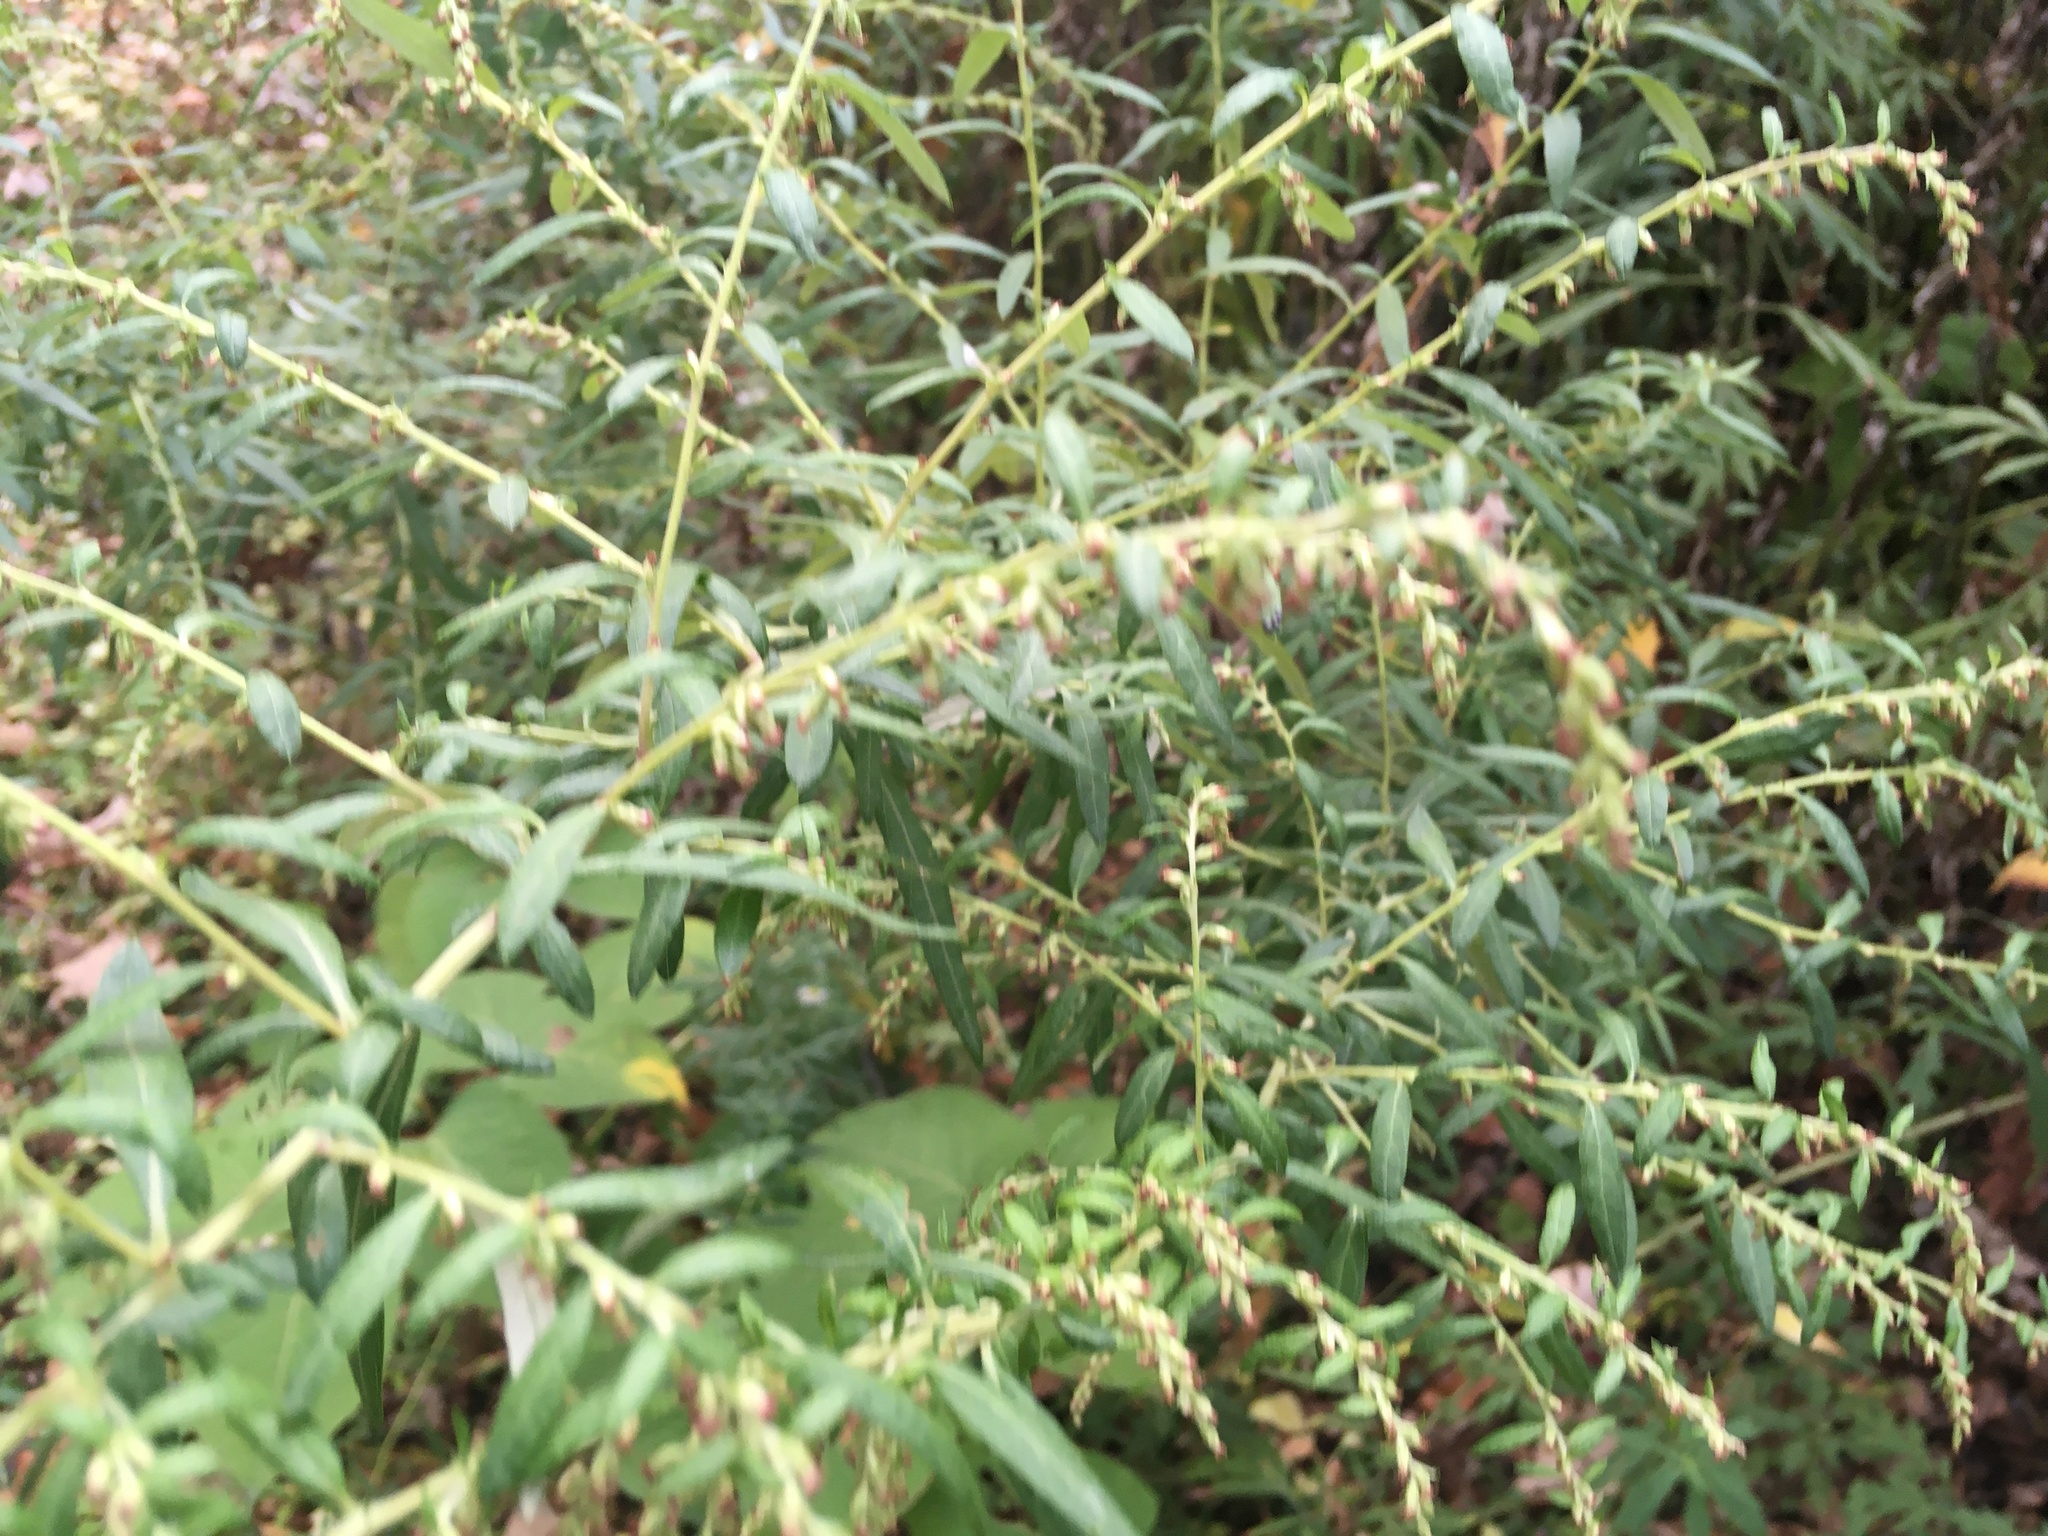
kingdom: Plantae
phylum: Tracheophyta
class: Magnoliopsida
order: Asterales
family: Asteraceae
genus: Artemisia
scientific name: Artemisia vulgaris
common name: Mugwort
